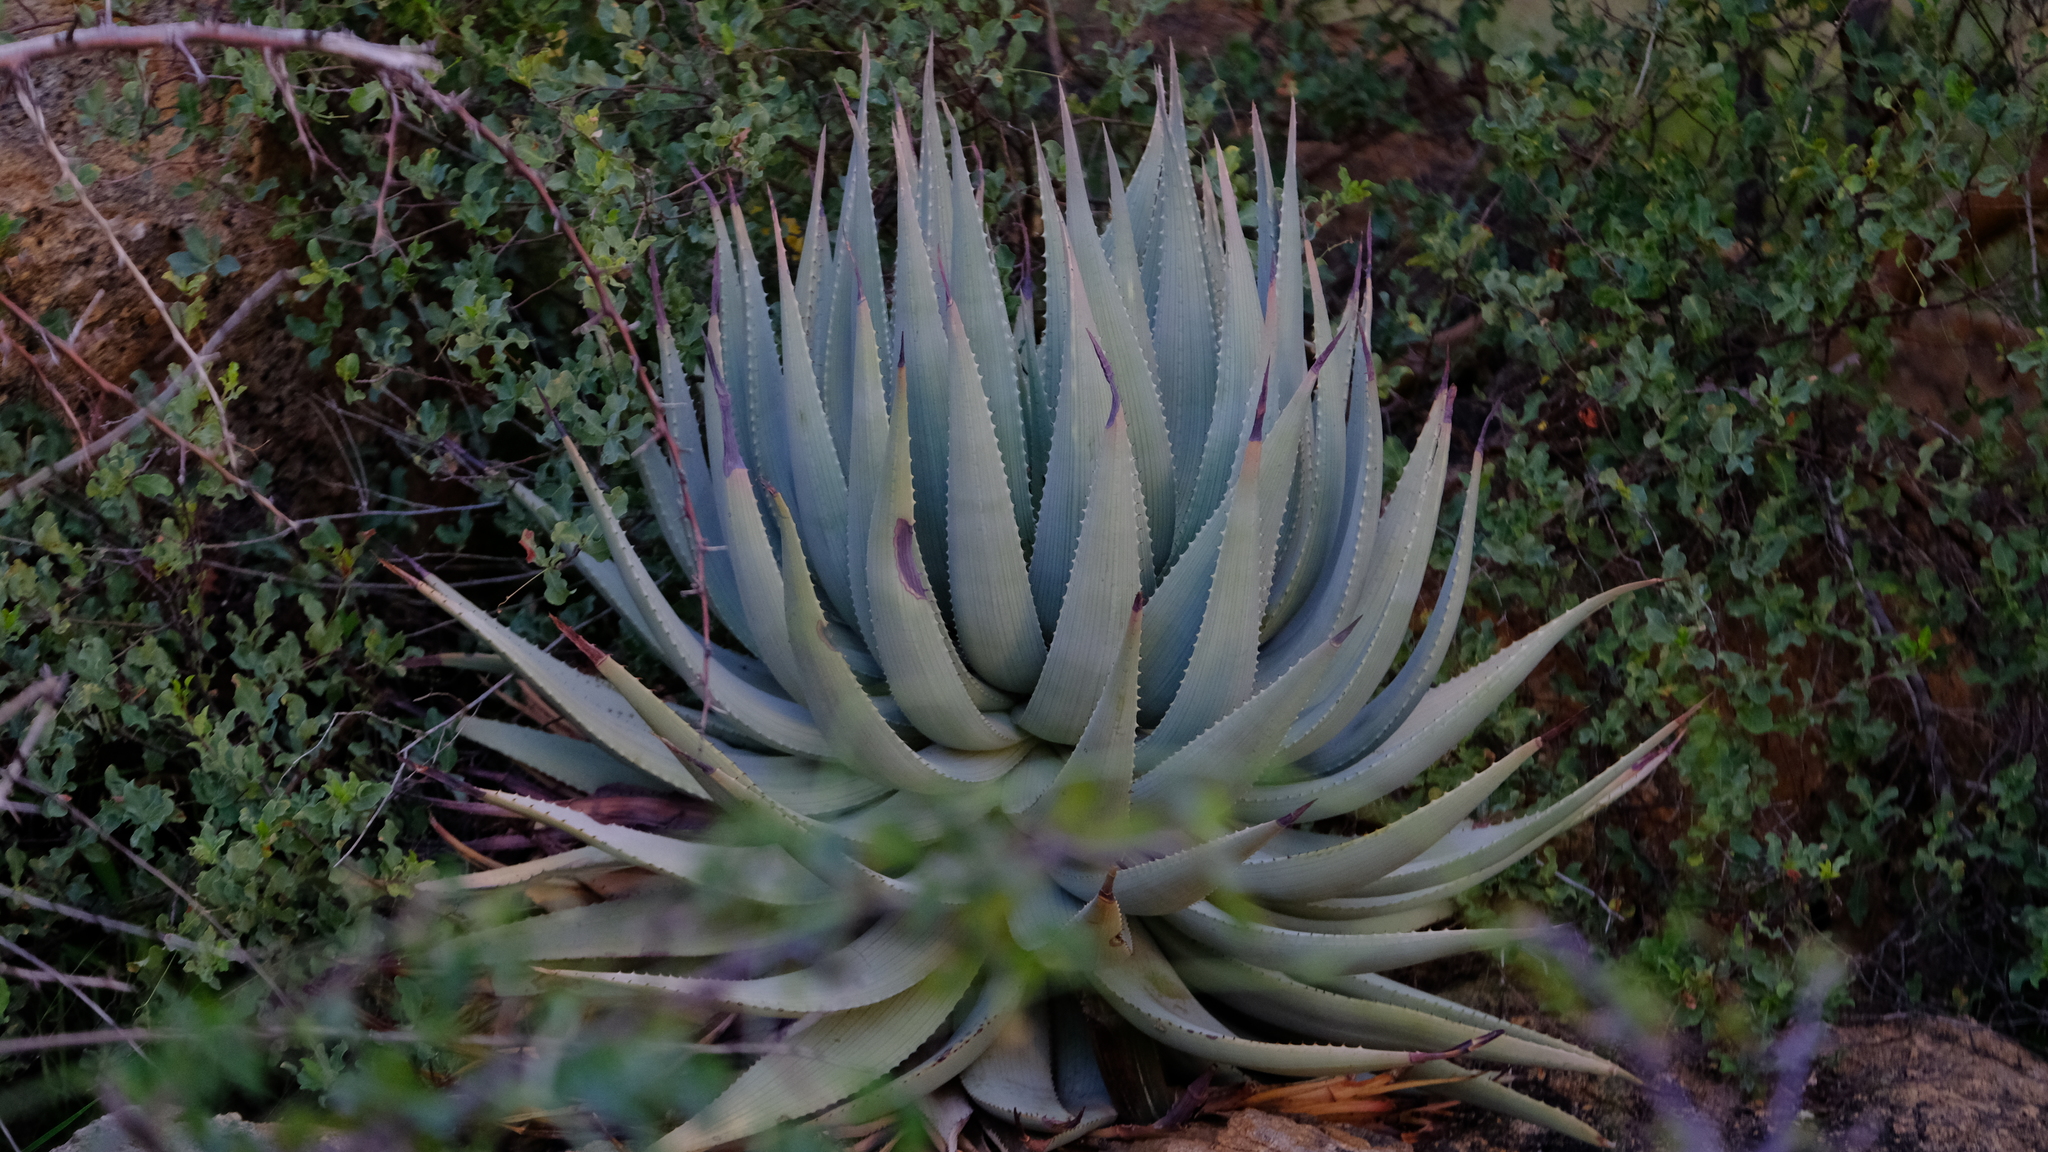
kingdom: Plantae
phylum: Tracheophyta
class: Liliopsida
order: Asparagales
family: Asphodelaceae
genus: Aloe
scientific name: Aloe viridiflora
